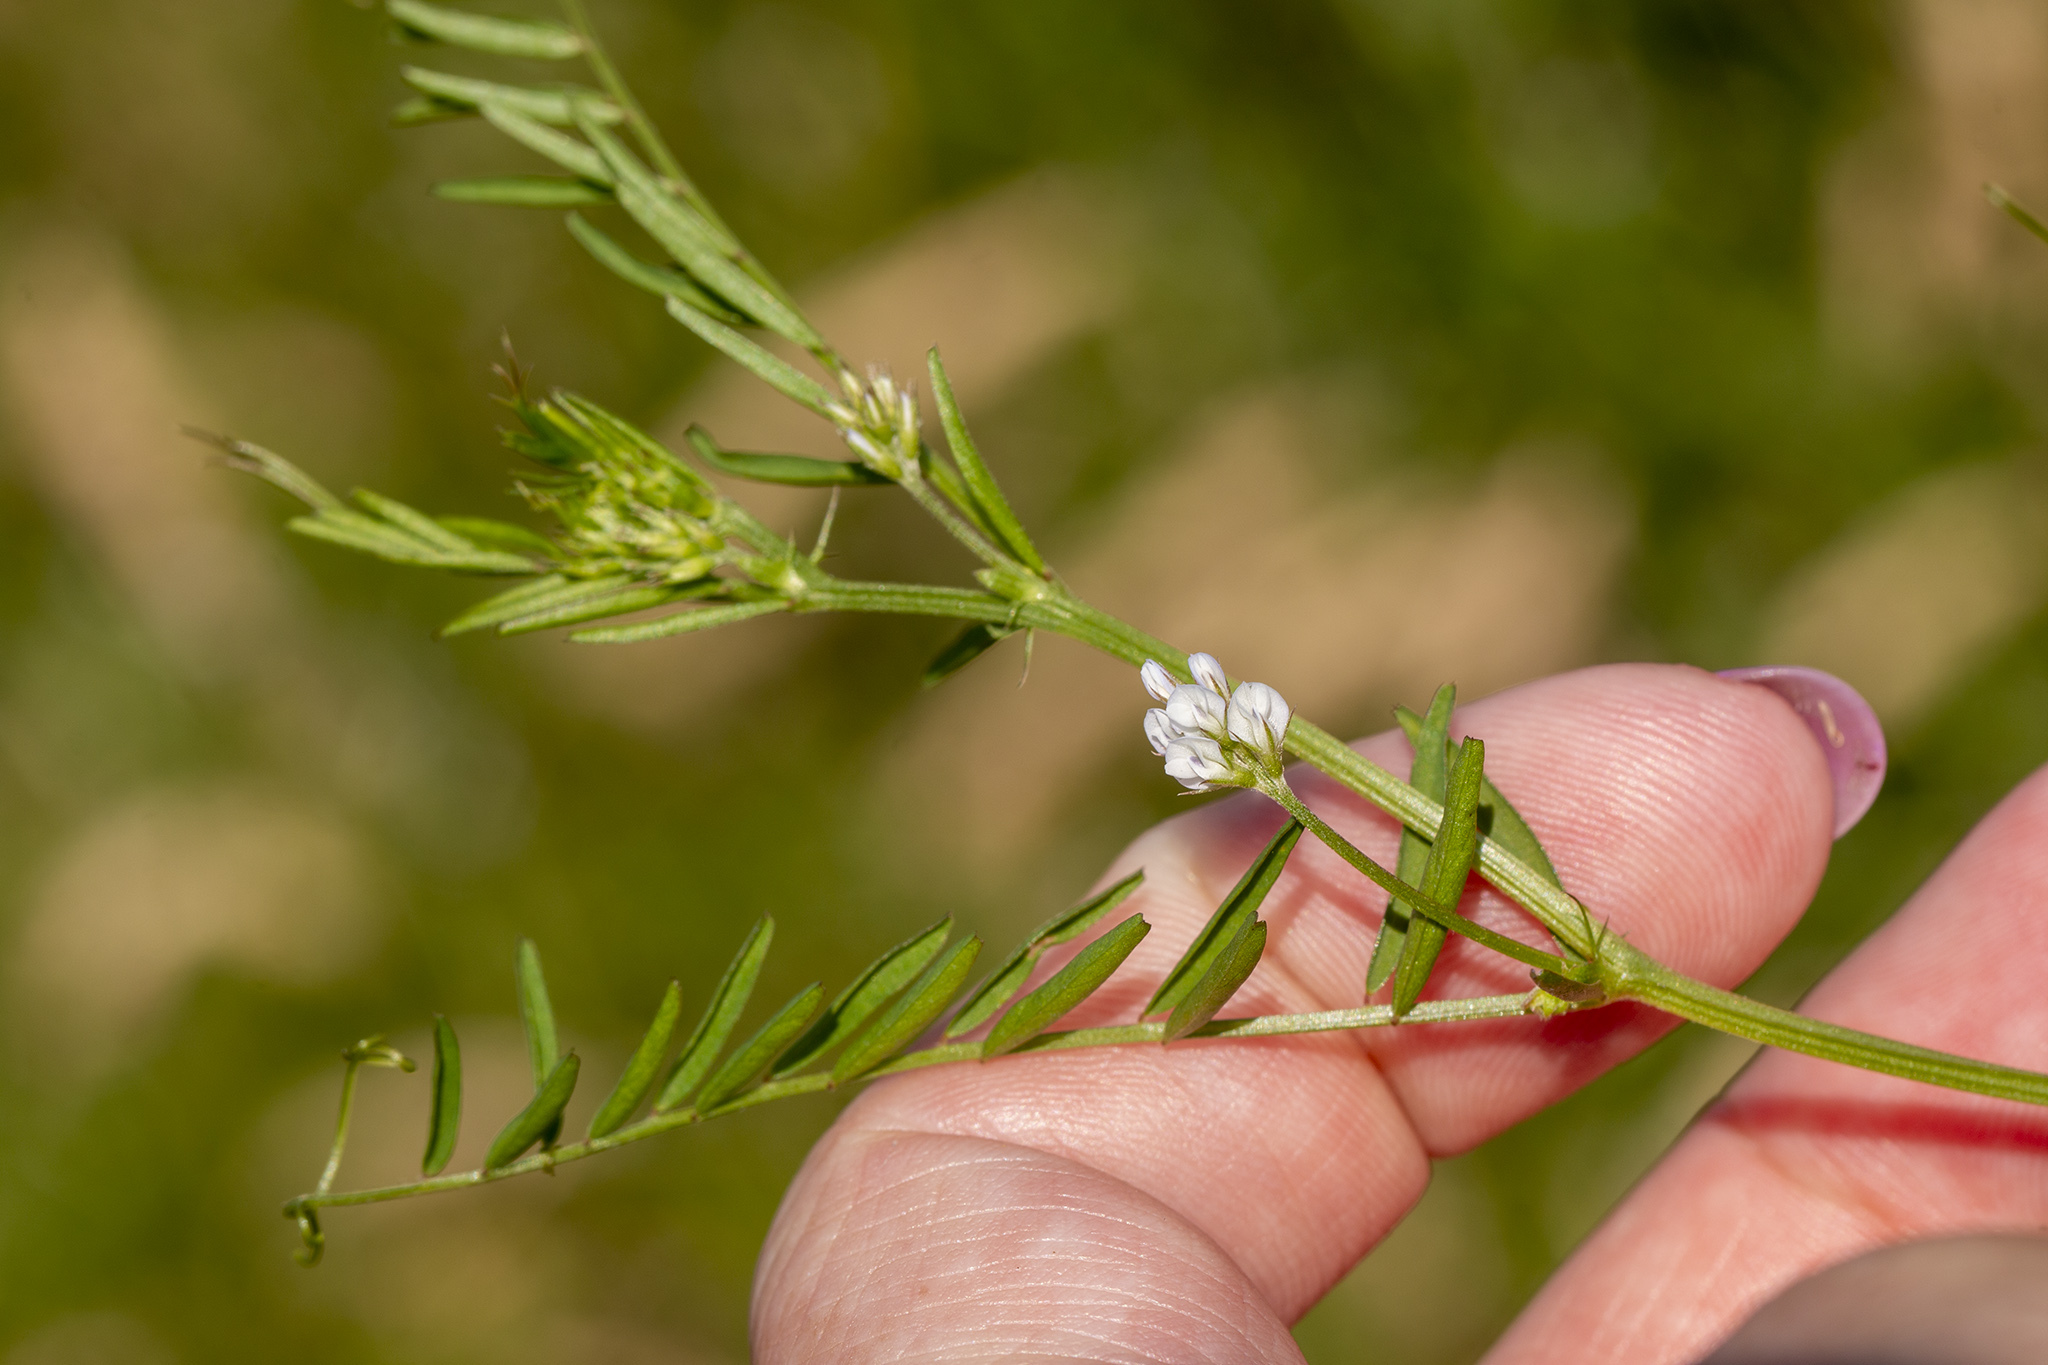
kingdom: Plantae
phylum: Tracheophyta
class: Magnoliopsida
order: Fabales
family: Fabaceae
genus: Vicia
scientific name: Vicia hirsuta
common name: Tiny vetch
